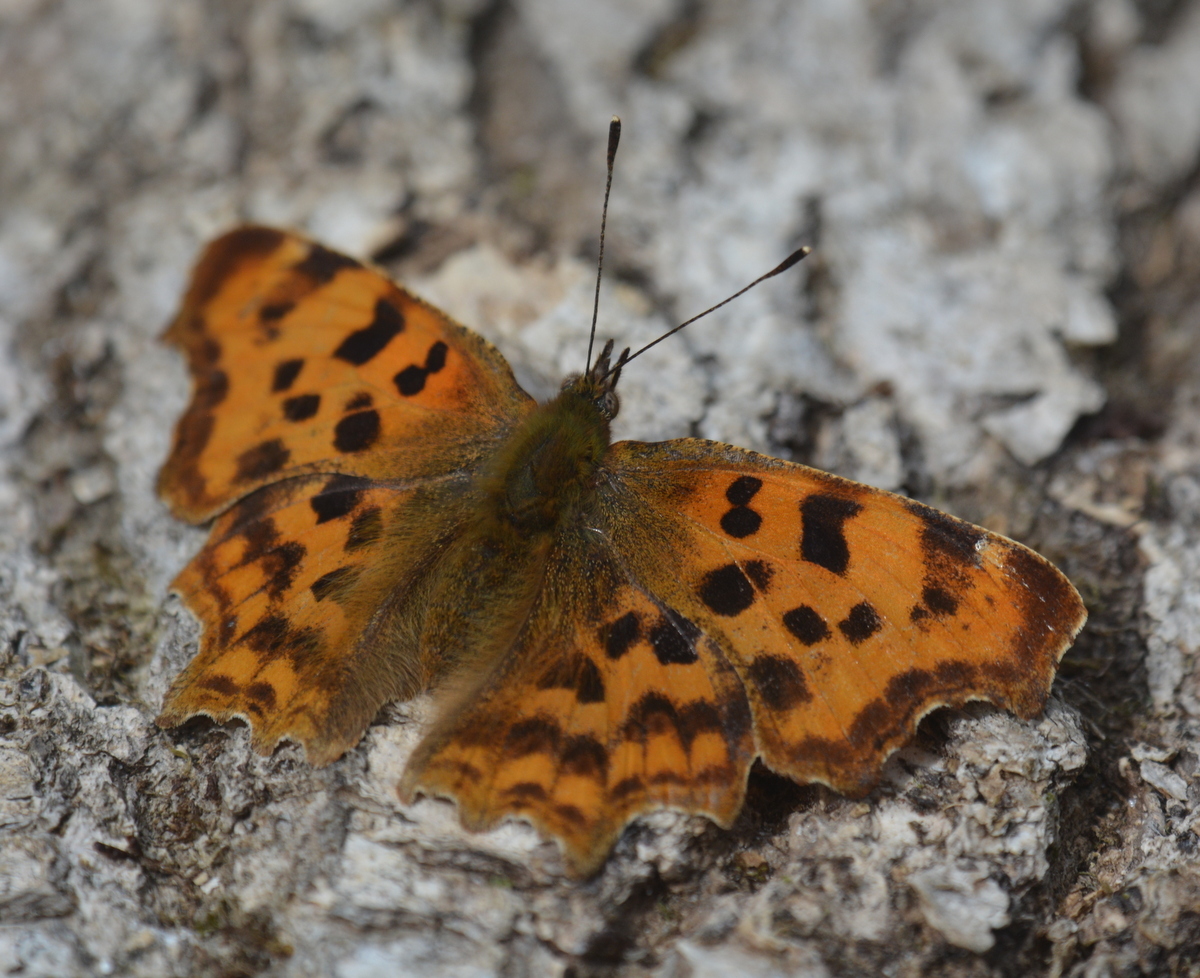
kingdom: Animalia
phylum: Arthropoda
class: Insecta
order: Lepidoptera
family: Nymphalidae
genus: Polygonia
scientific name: Polygonia c-album
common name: Comma
